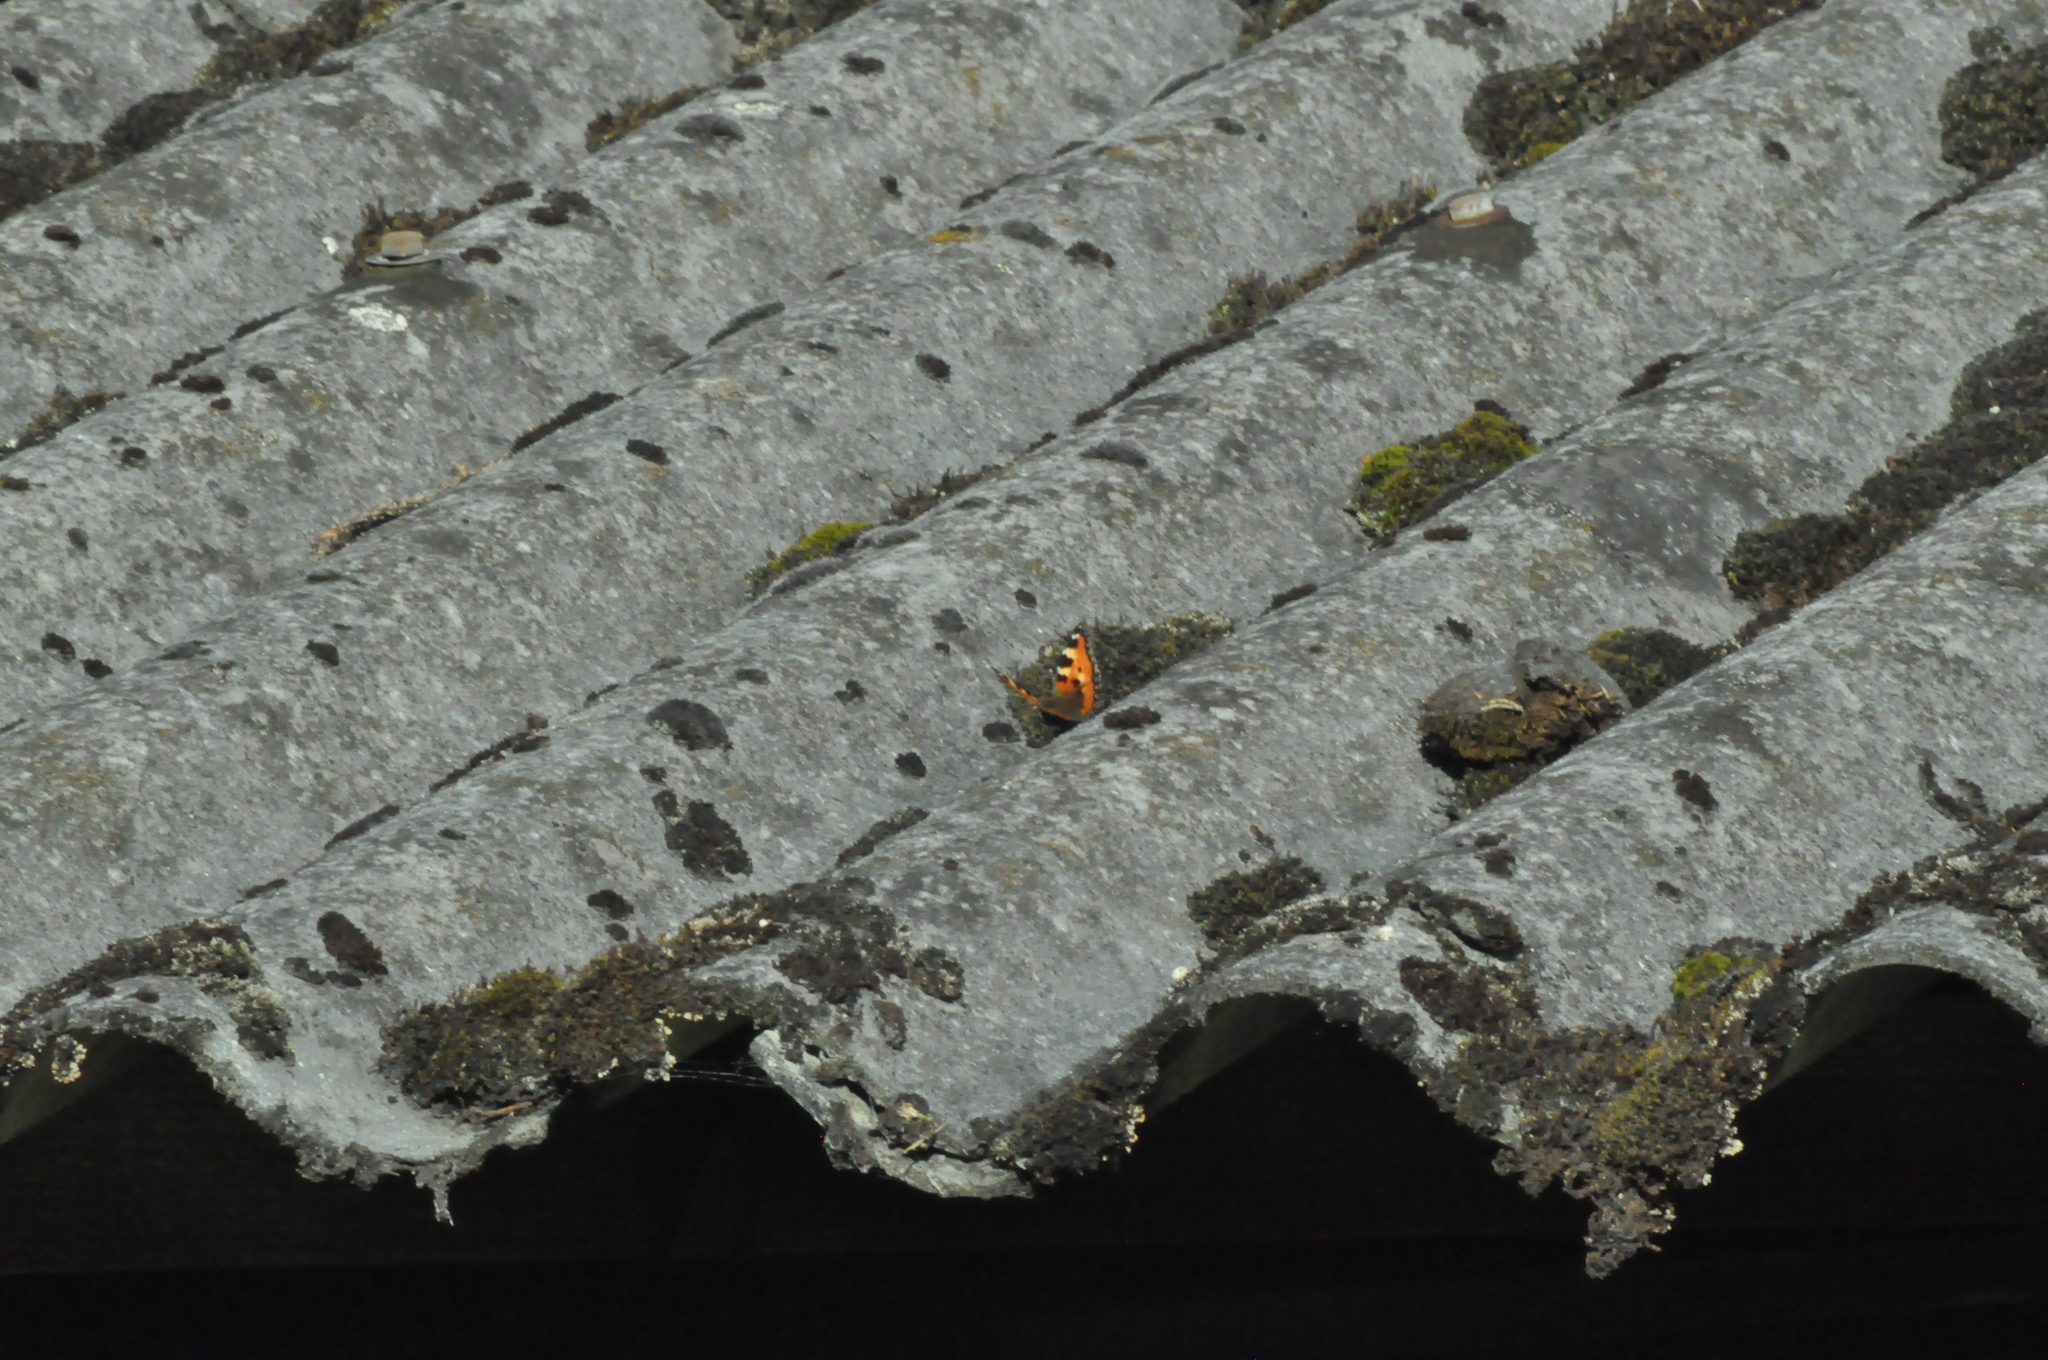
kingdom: Animalia
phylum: Arthropoda
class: Insecta
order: Lepidoptera
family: Nymphalidae
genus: Aglais
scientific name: Aglais urticae
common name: Small tortoiseshell
